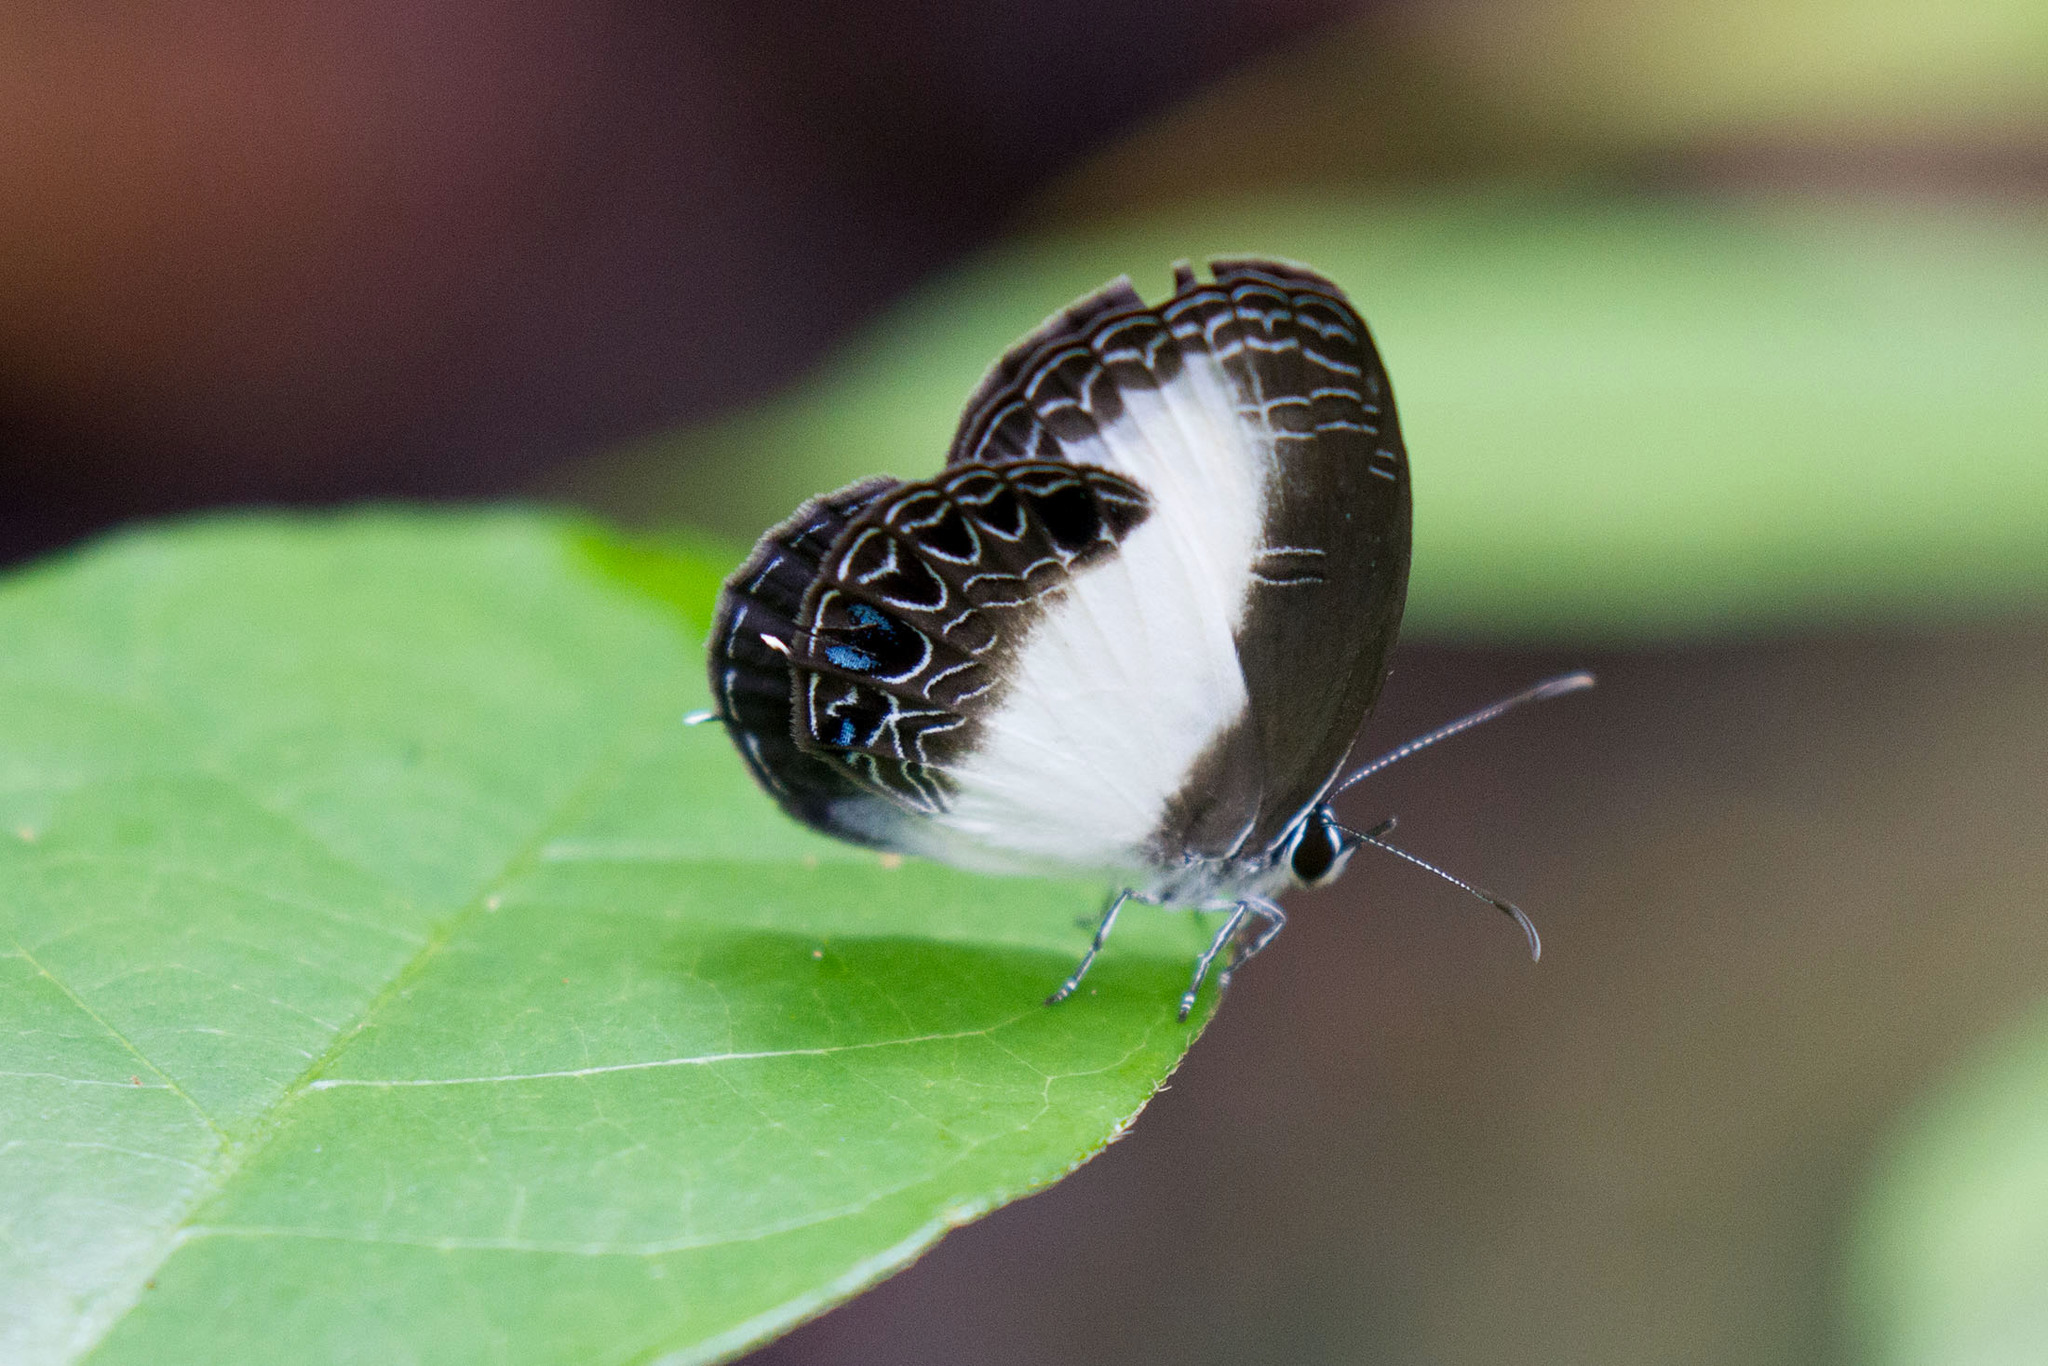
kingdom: Animalia
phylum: Arthropoda
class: Insecta
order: Lepidoptera
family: Lycaenidae
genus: Jamides
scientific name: Jamides cyta
